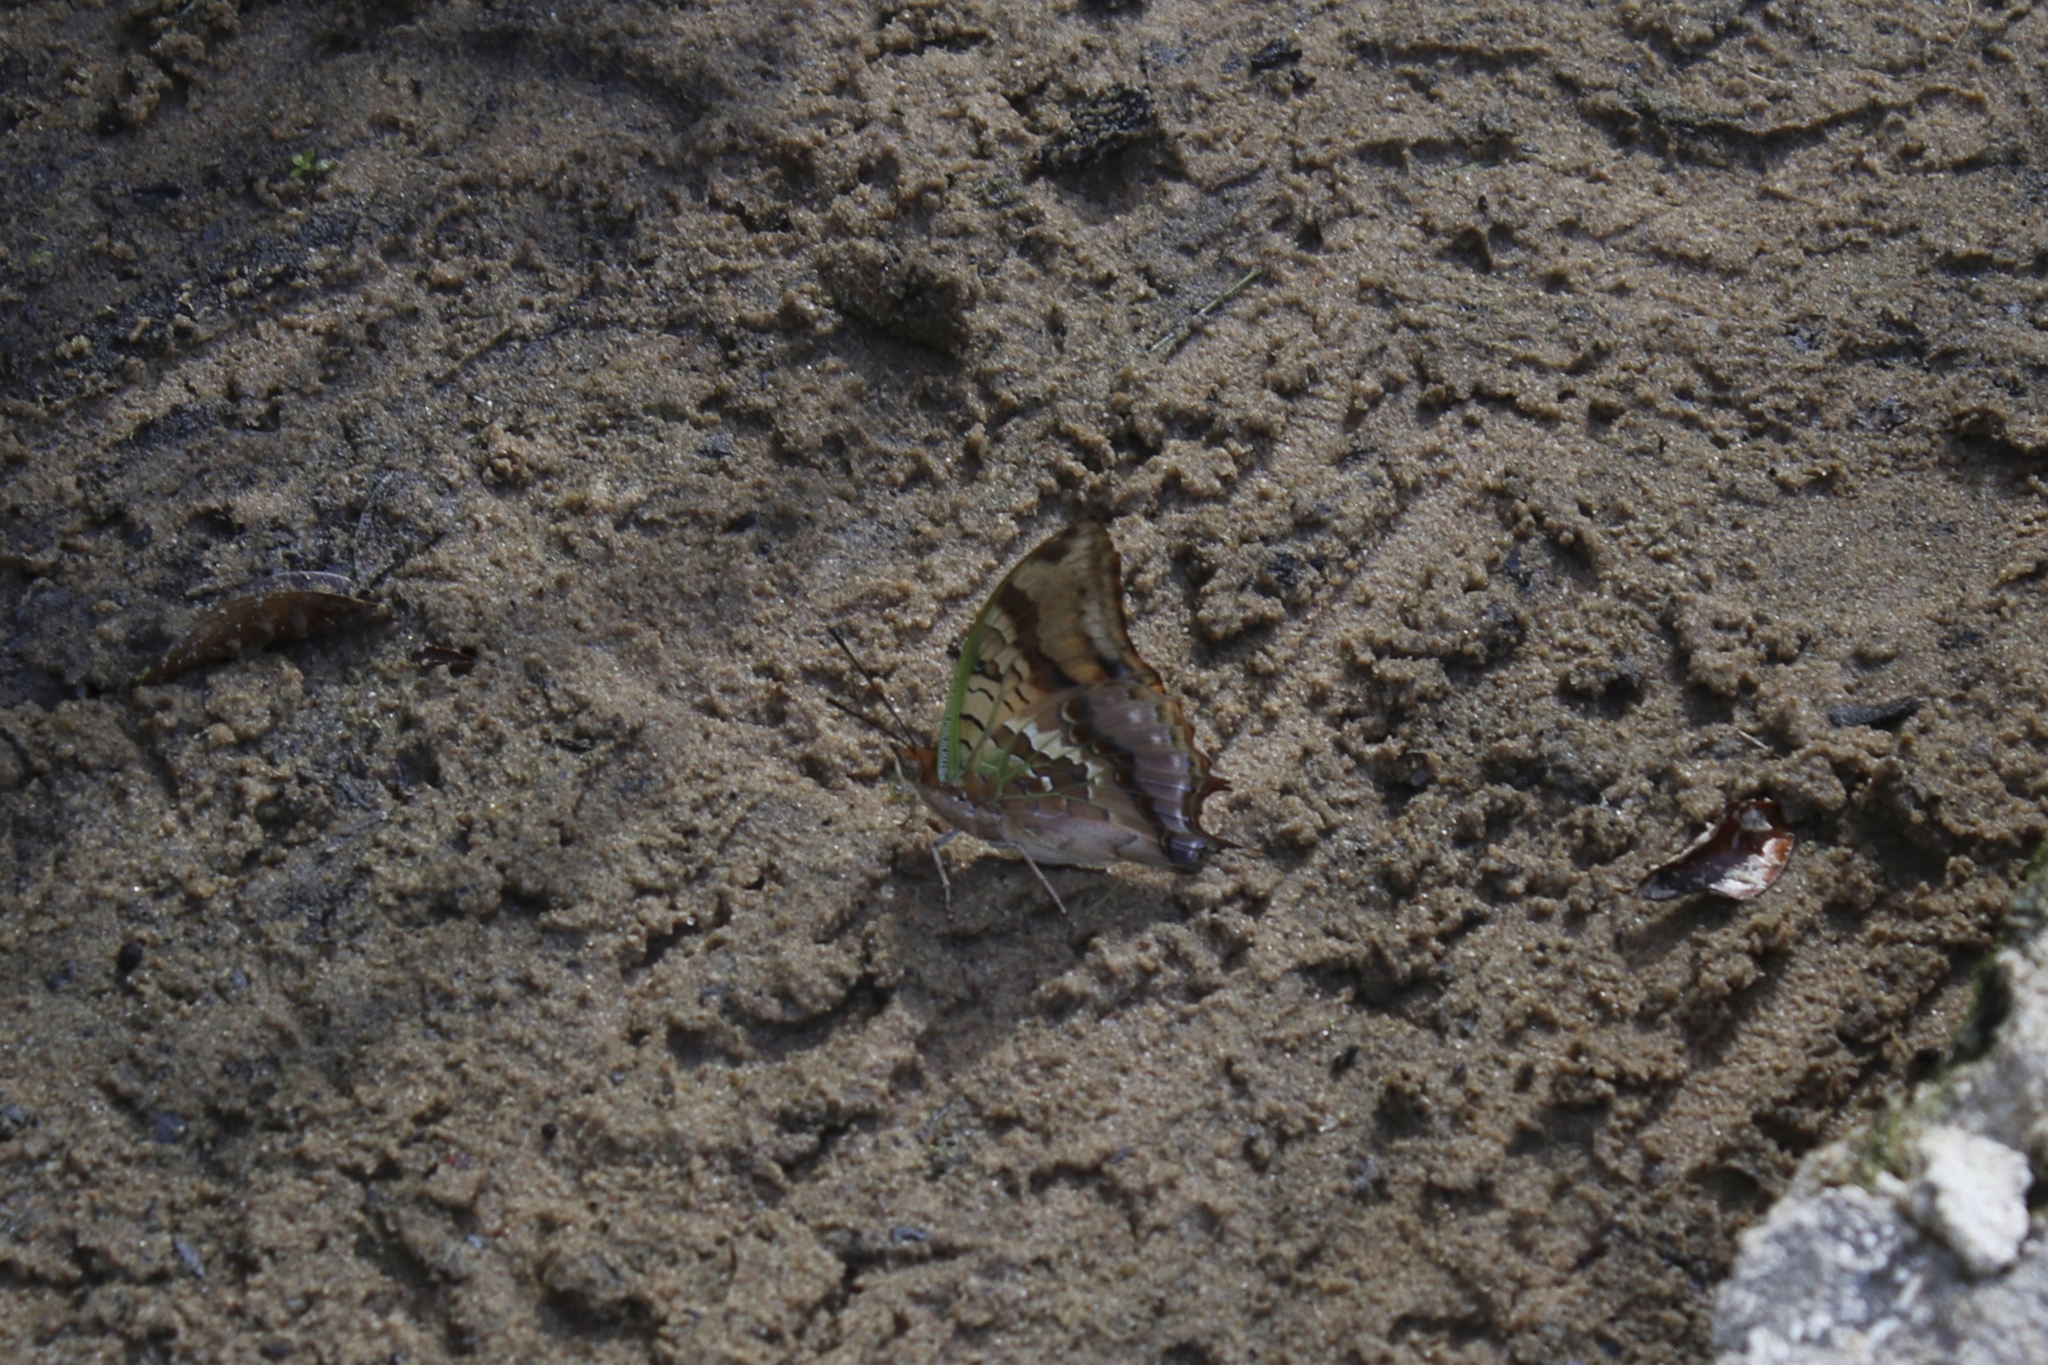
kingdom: Animalia
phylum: Arthropoda
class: Insecta
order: Lepidoptera
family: Nymphalidae
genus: Charaxes
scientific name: Charaxes candiope
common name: Green-veined charaxes
